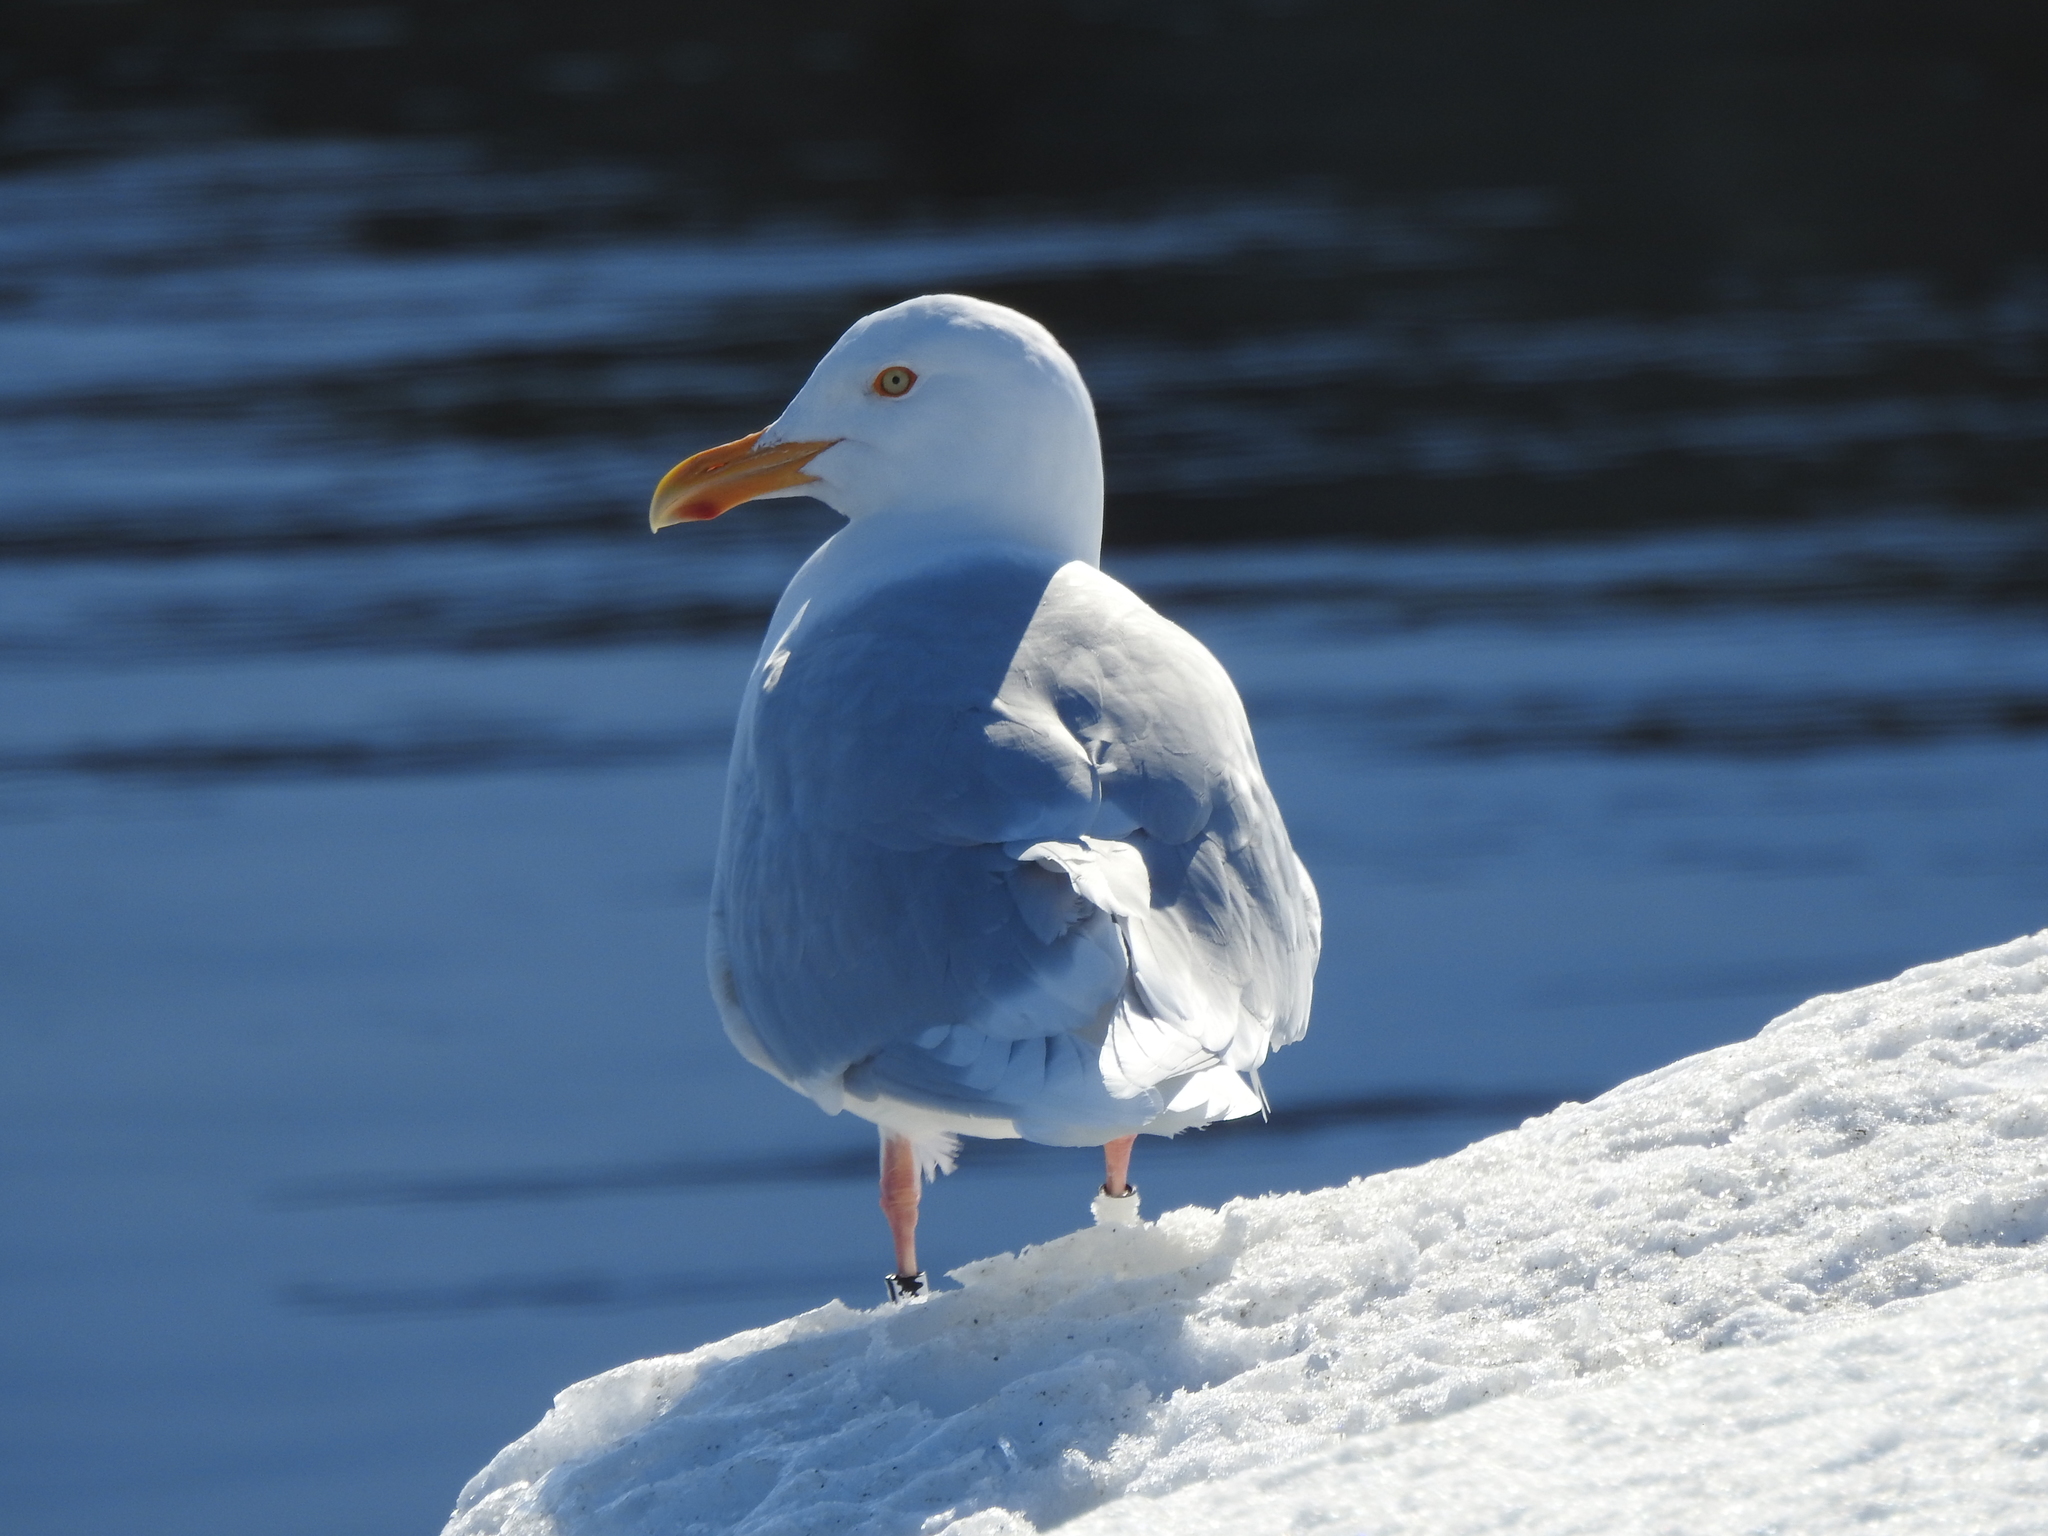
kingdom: Animalia
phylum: Chordata
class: Aves
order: Charadriiformes
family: Laridae
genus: Larus
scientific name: Larus hyperboreus
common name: Glaucous gull
